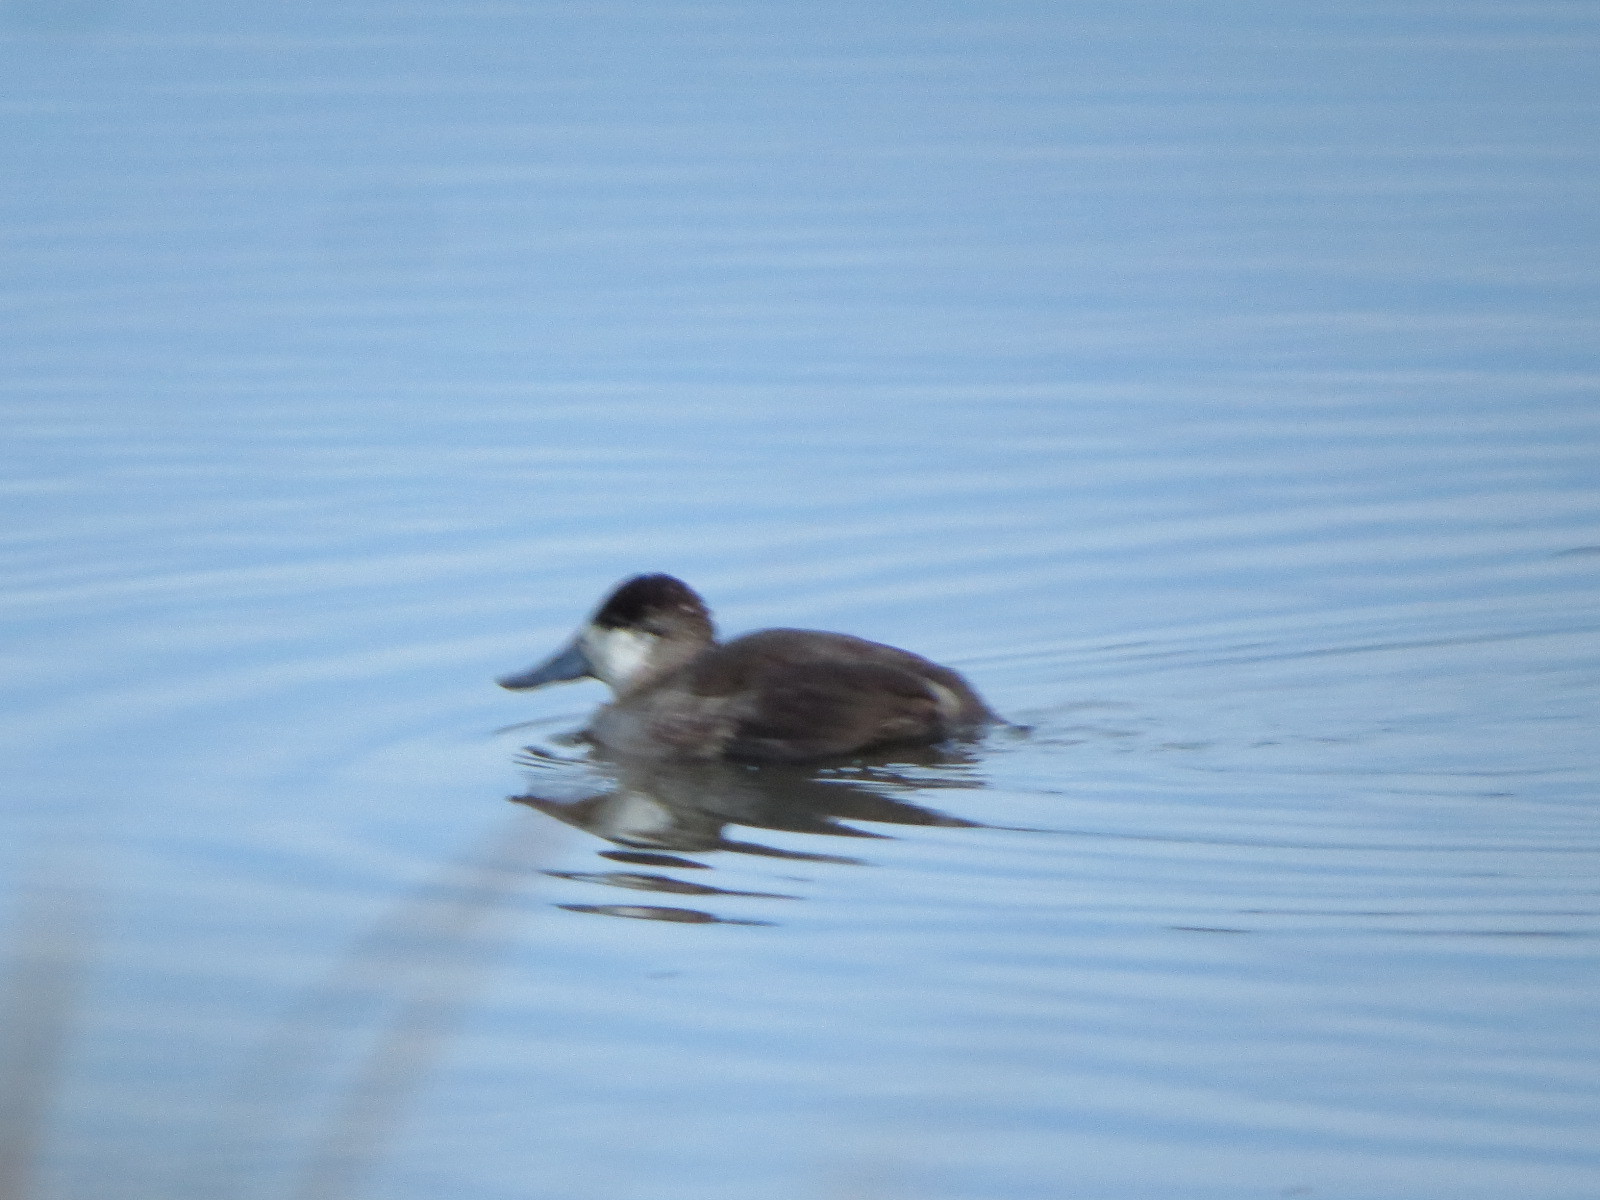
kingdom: Animalia
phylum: Chordata
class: Aves
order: Anseriformes
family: Anatidae
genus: Oxyura
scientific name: Oxyura jamaicensis
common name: Ruddy duck
